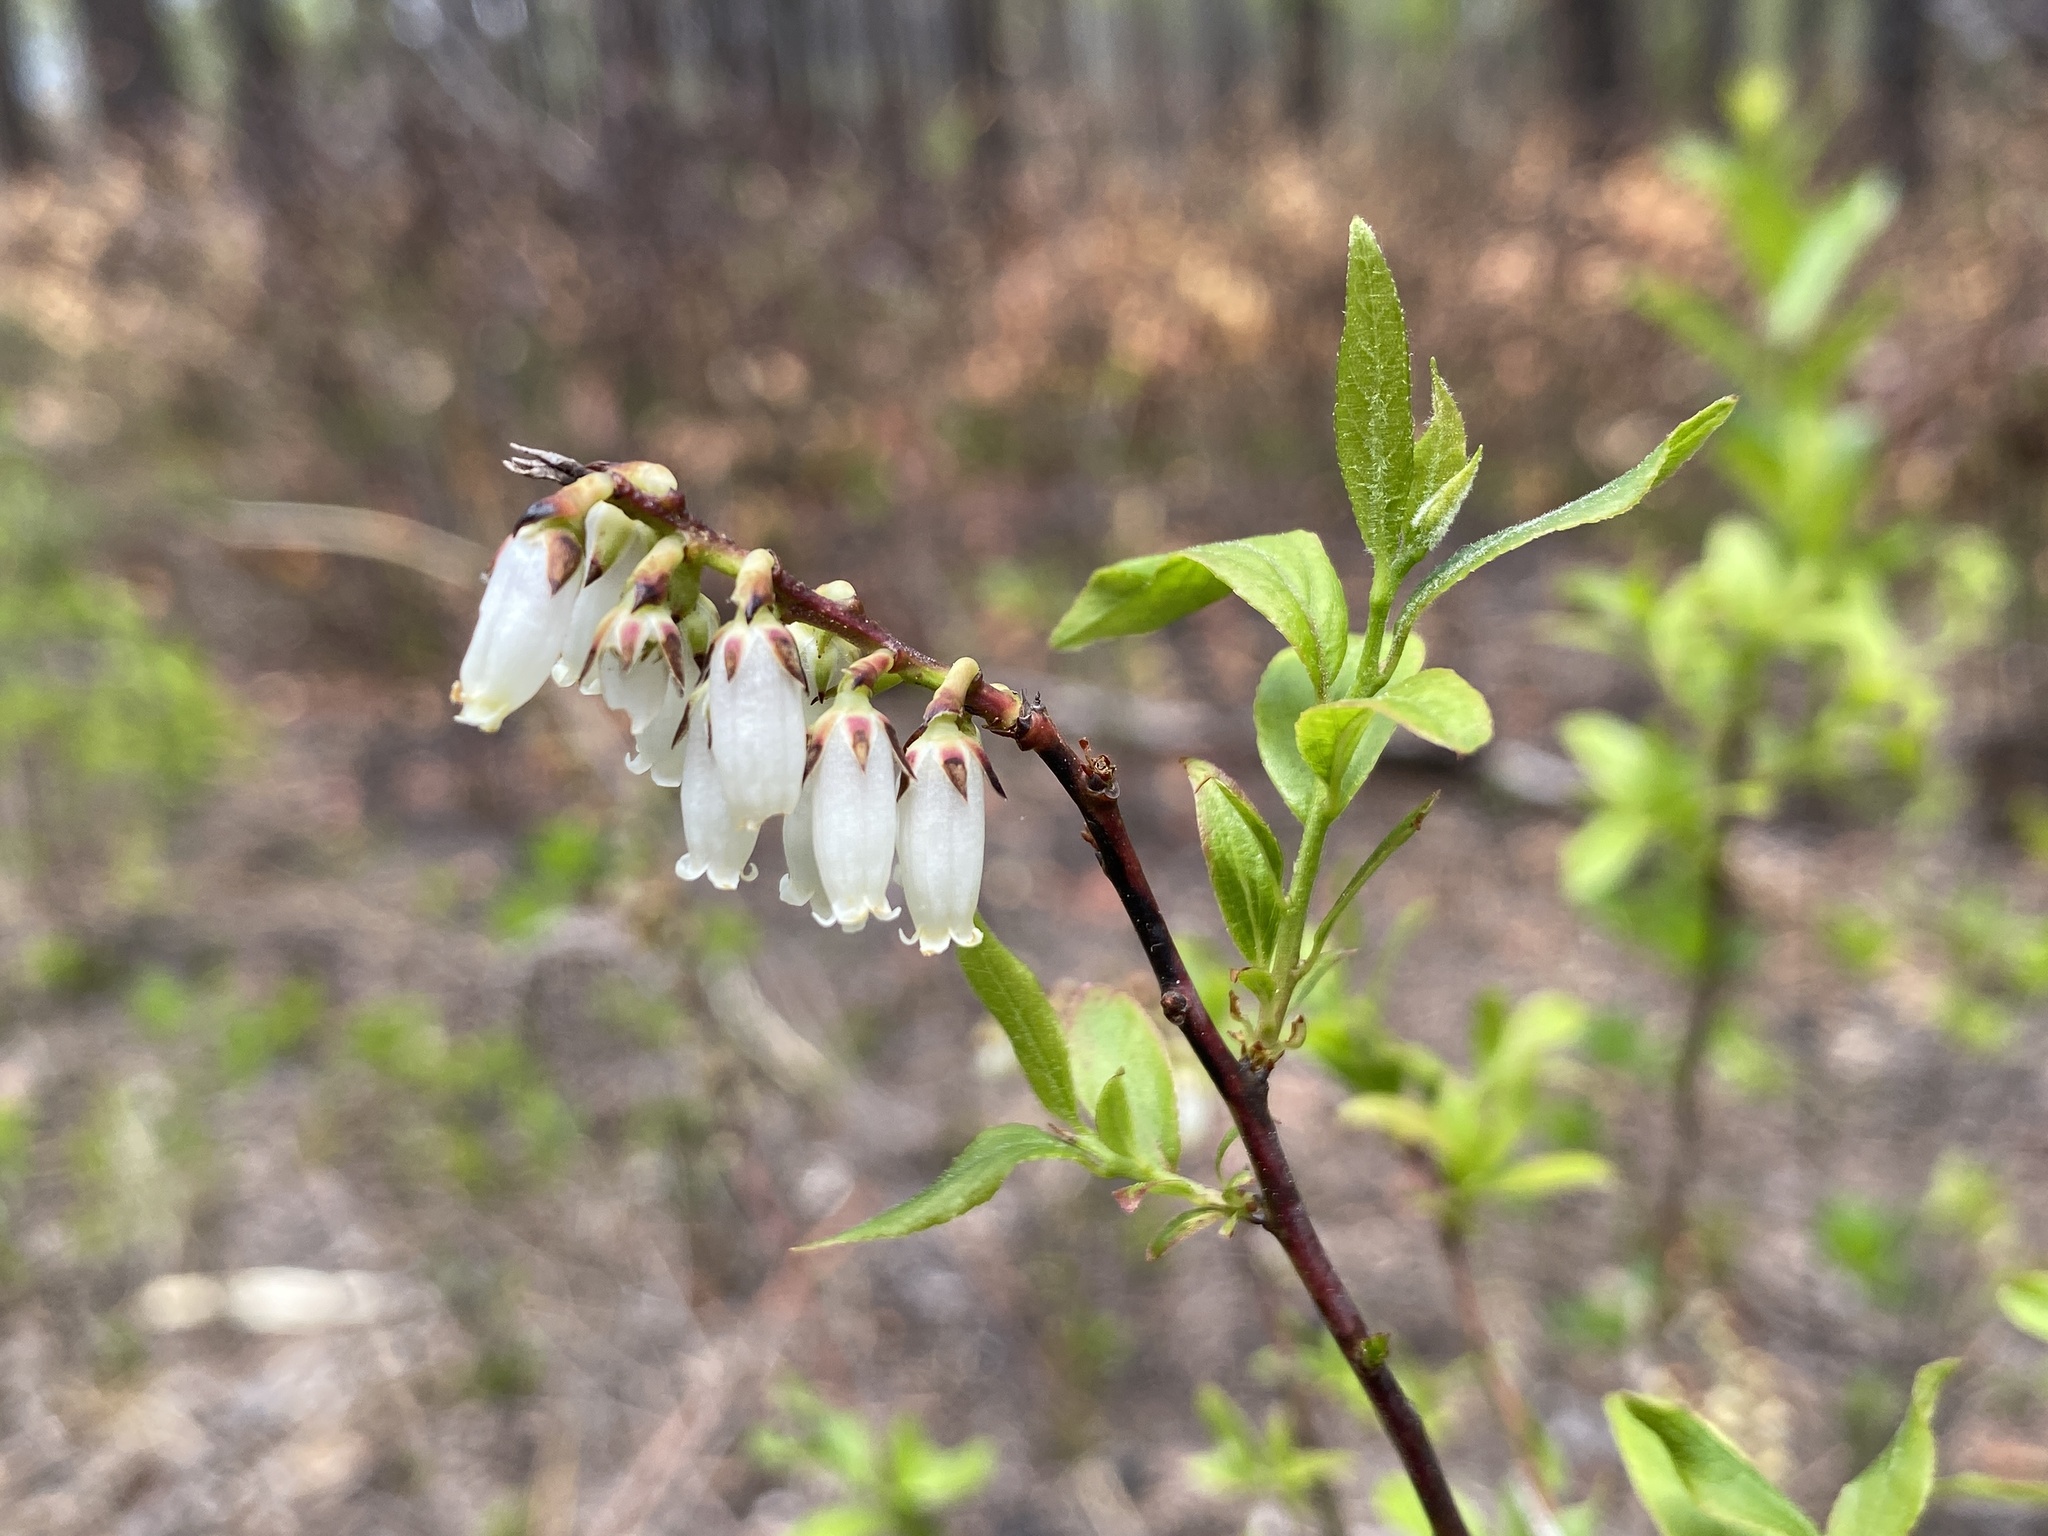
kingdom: Plantae
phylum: Tracheophyta
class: Magnoliopsida
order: Ericales
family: Ericaceae
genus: Eubotrys
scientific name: Eubotrys racemosa
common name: Fetterbush
